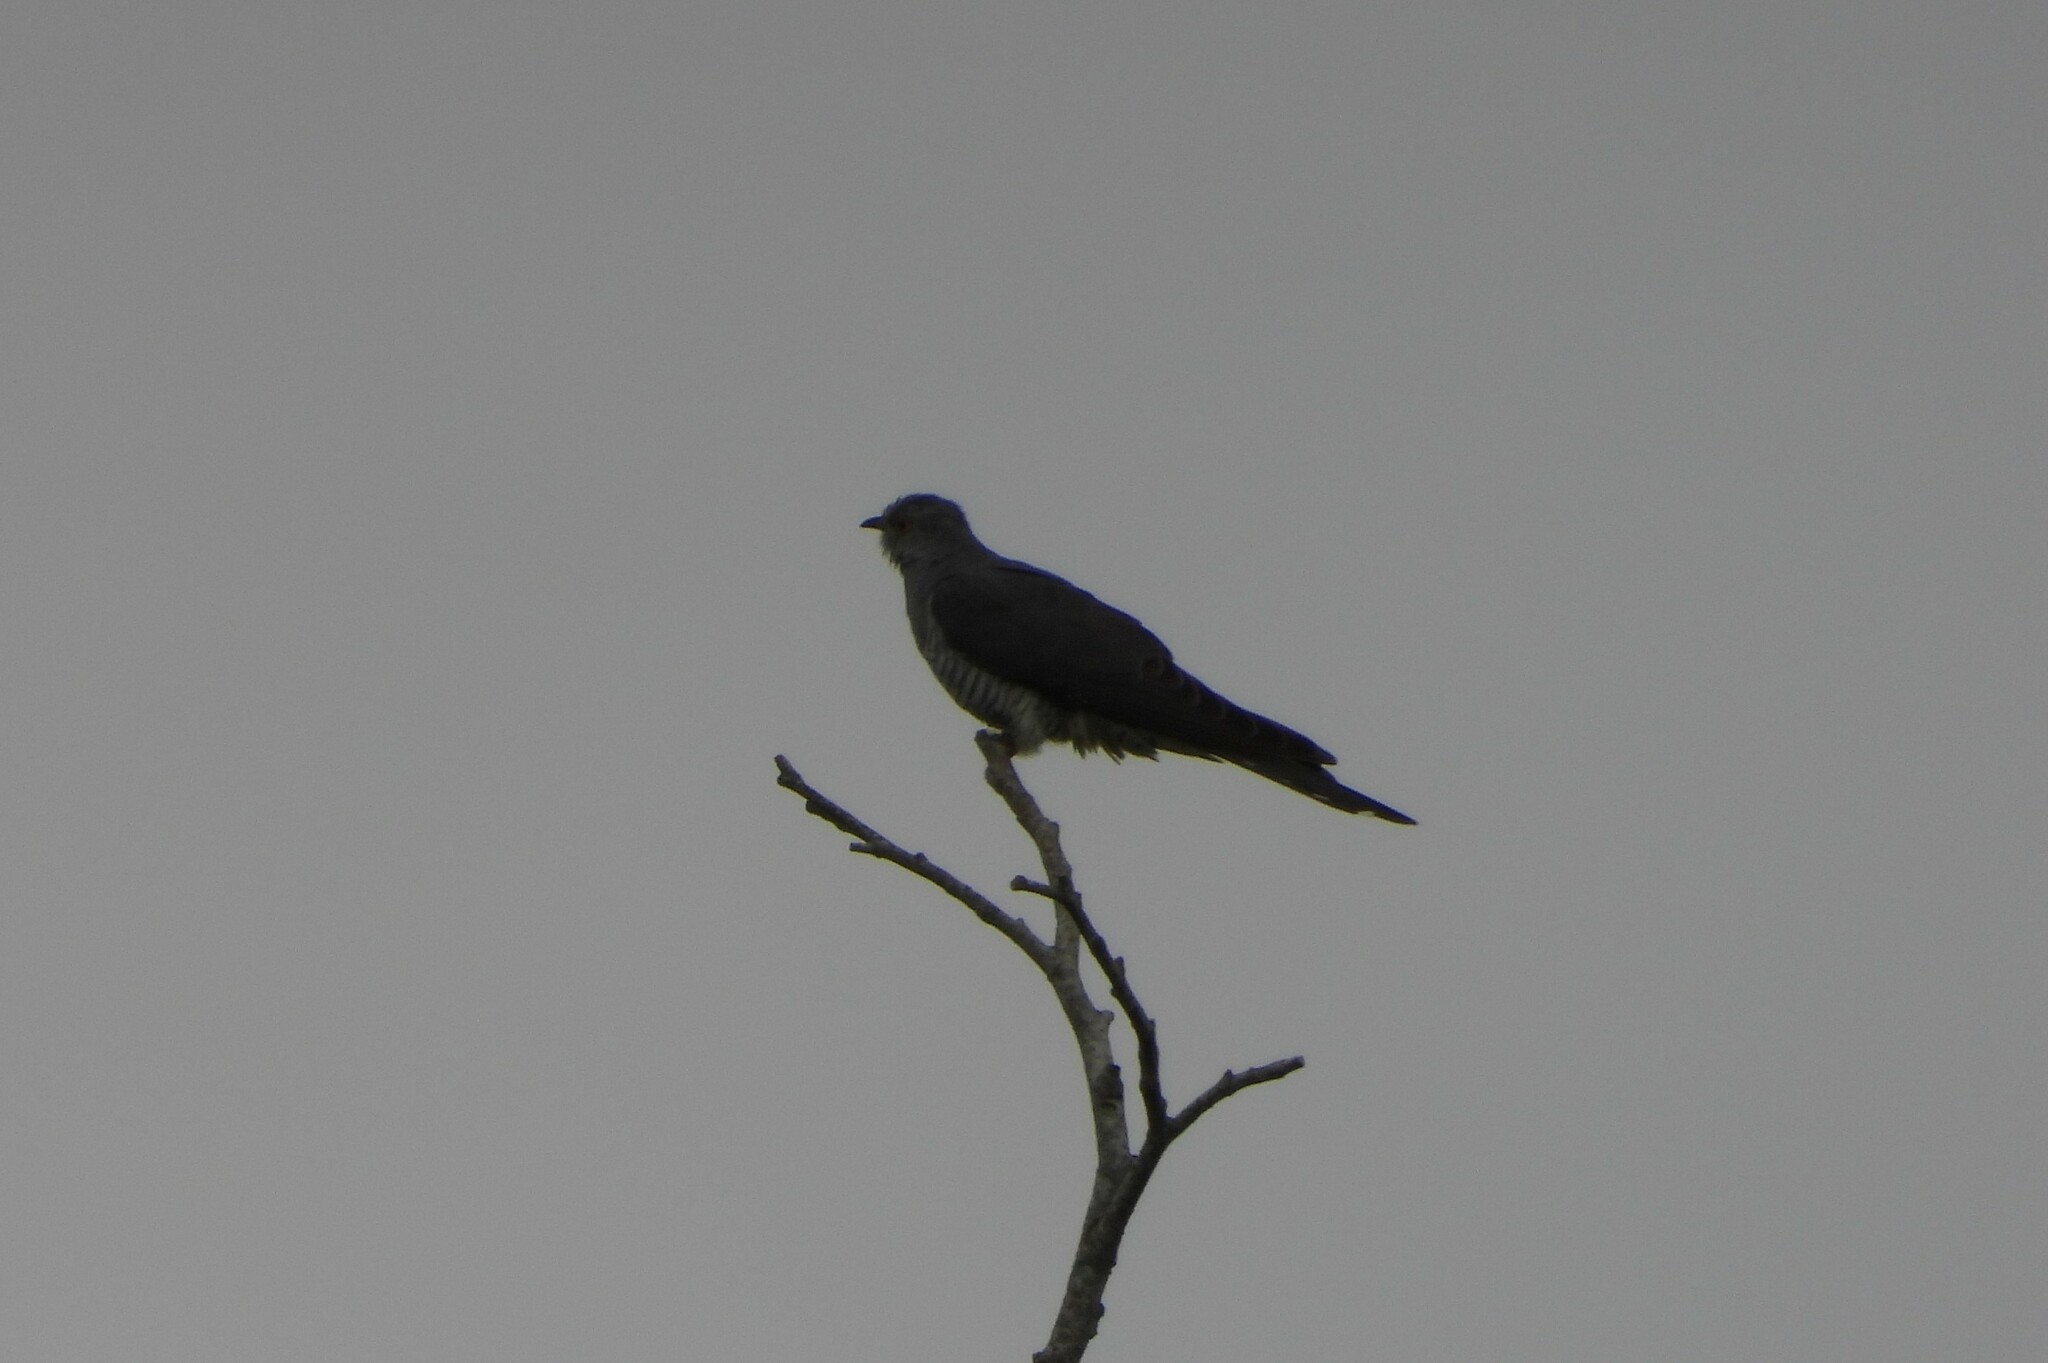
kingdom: Animalia
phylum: Chordata
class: Aves
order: Cuculiformes
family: Cuculidae
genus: Cuculus
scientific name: Cuculus canorus
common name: Common cuckoo
